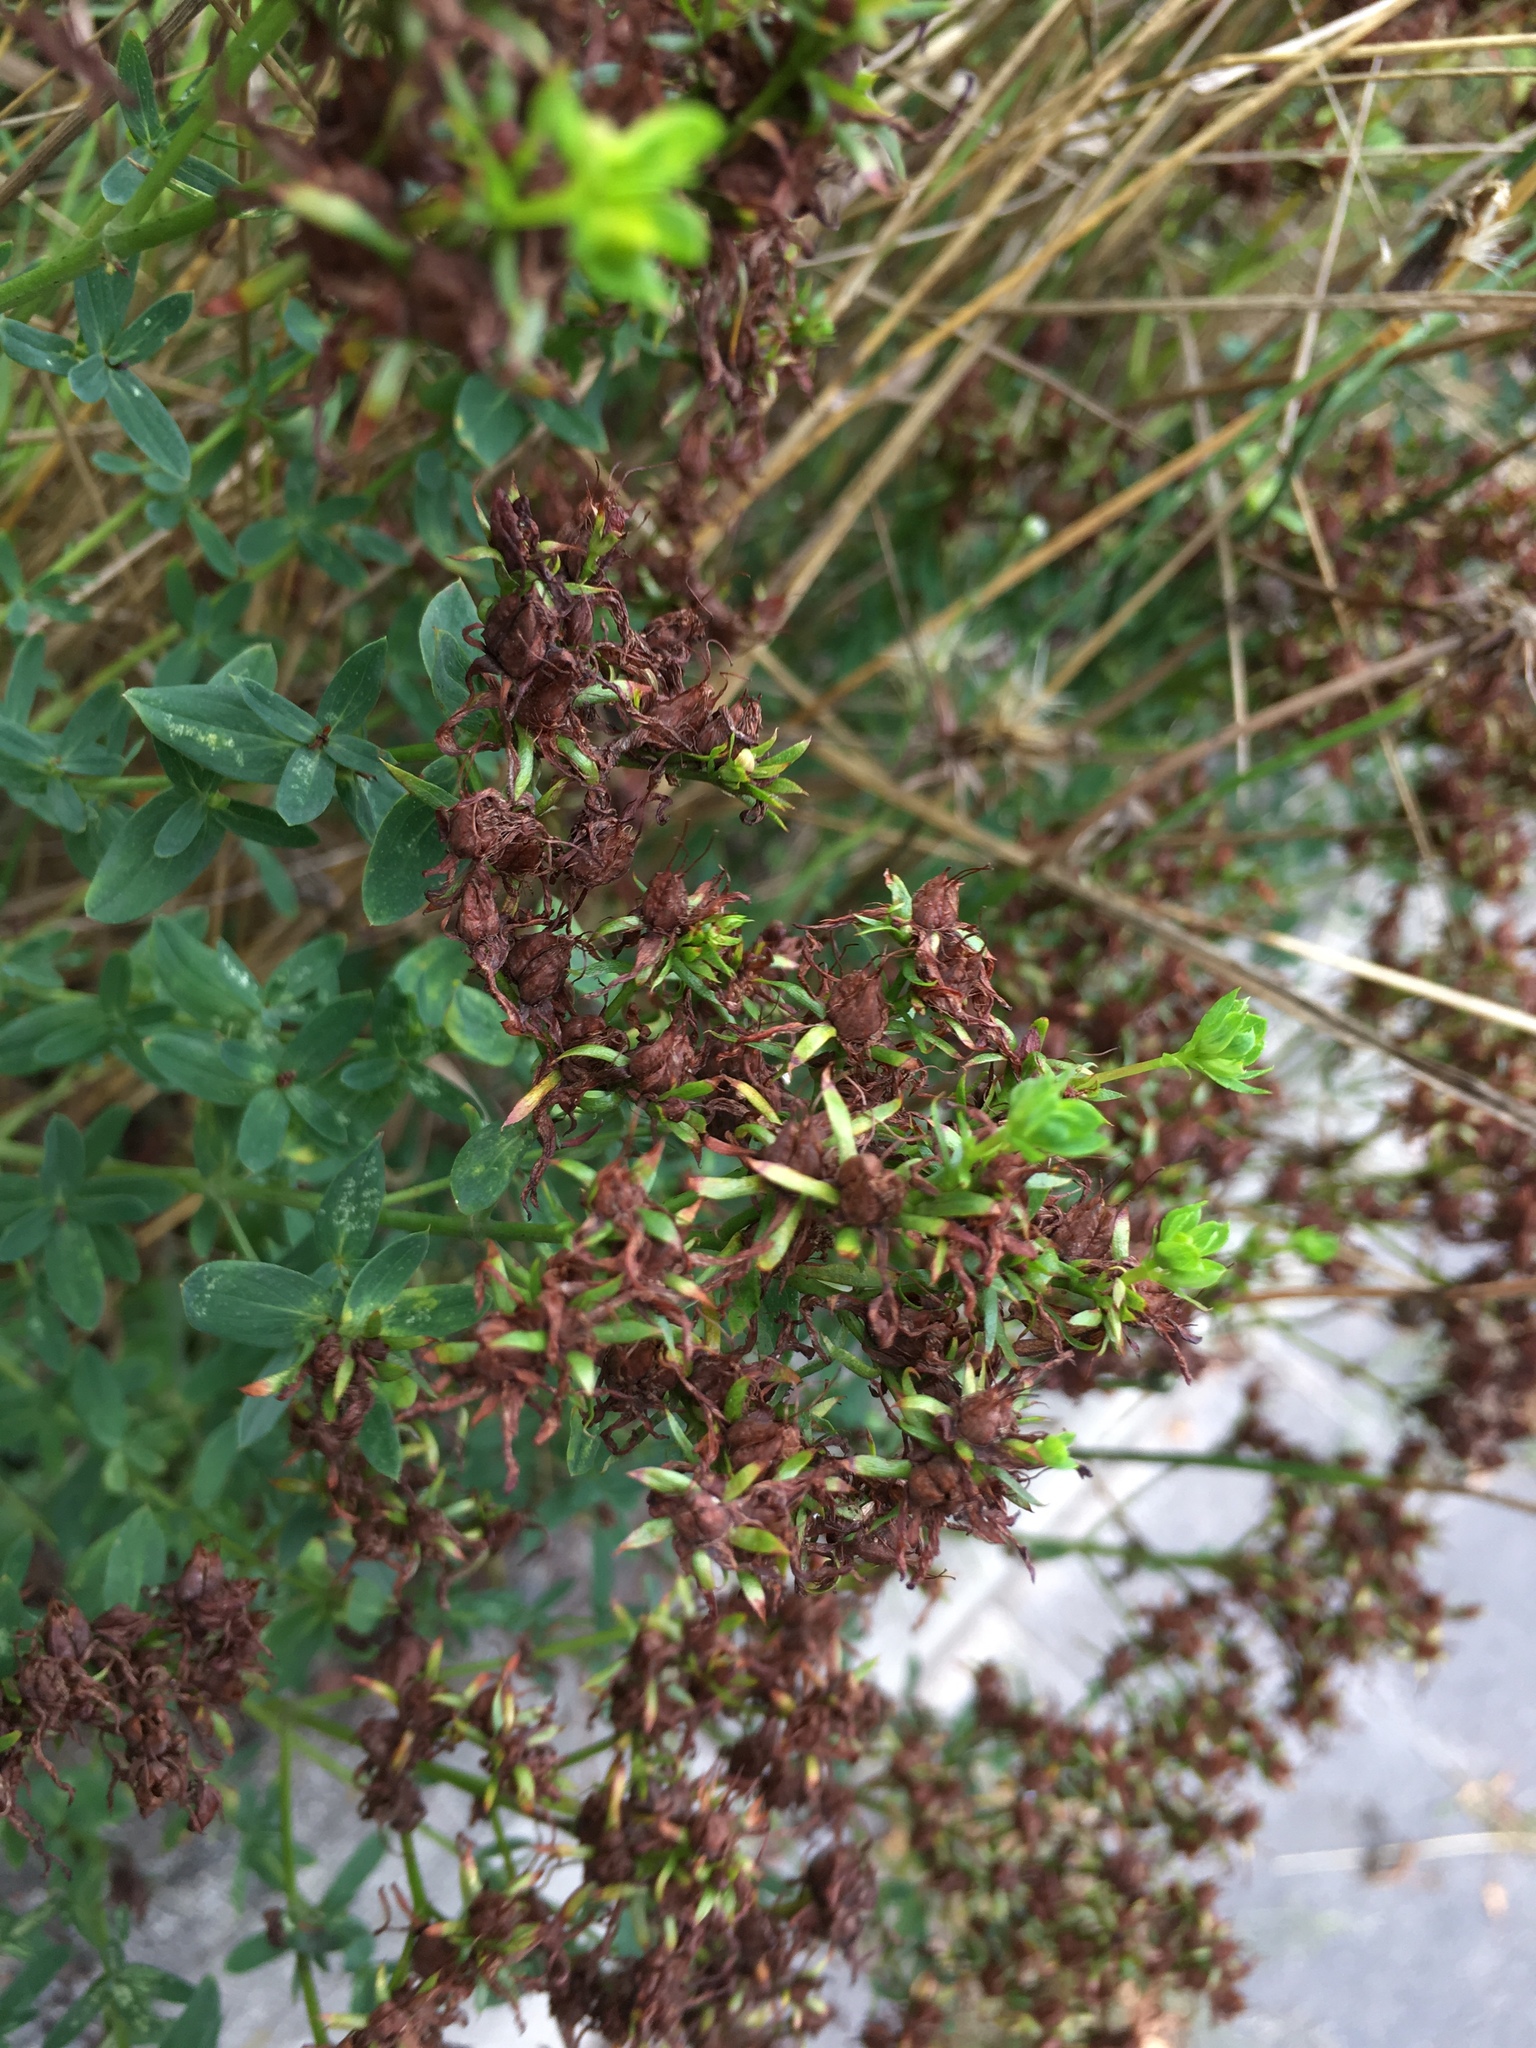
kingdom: Plantae
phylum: Tracheophyta
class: Magnoliopsida
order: Malpighiales
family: Hypericaceae
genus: Hypericum
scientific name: Hypericum perforatum
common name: Common st. johnswort
